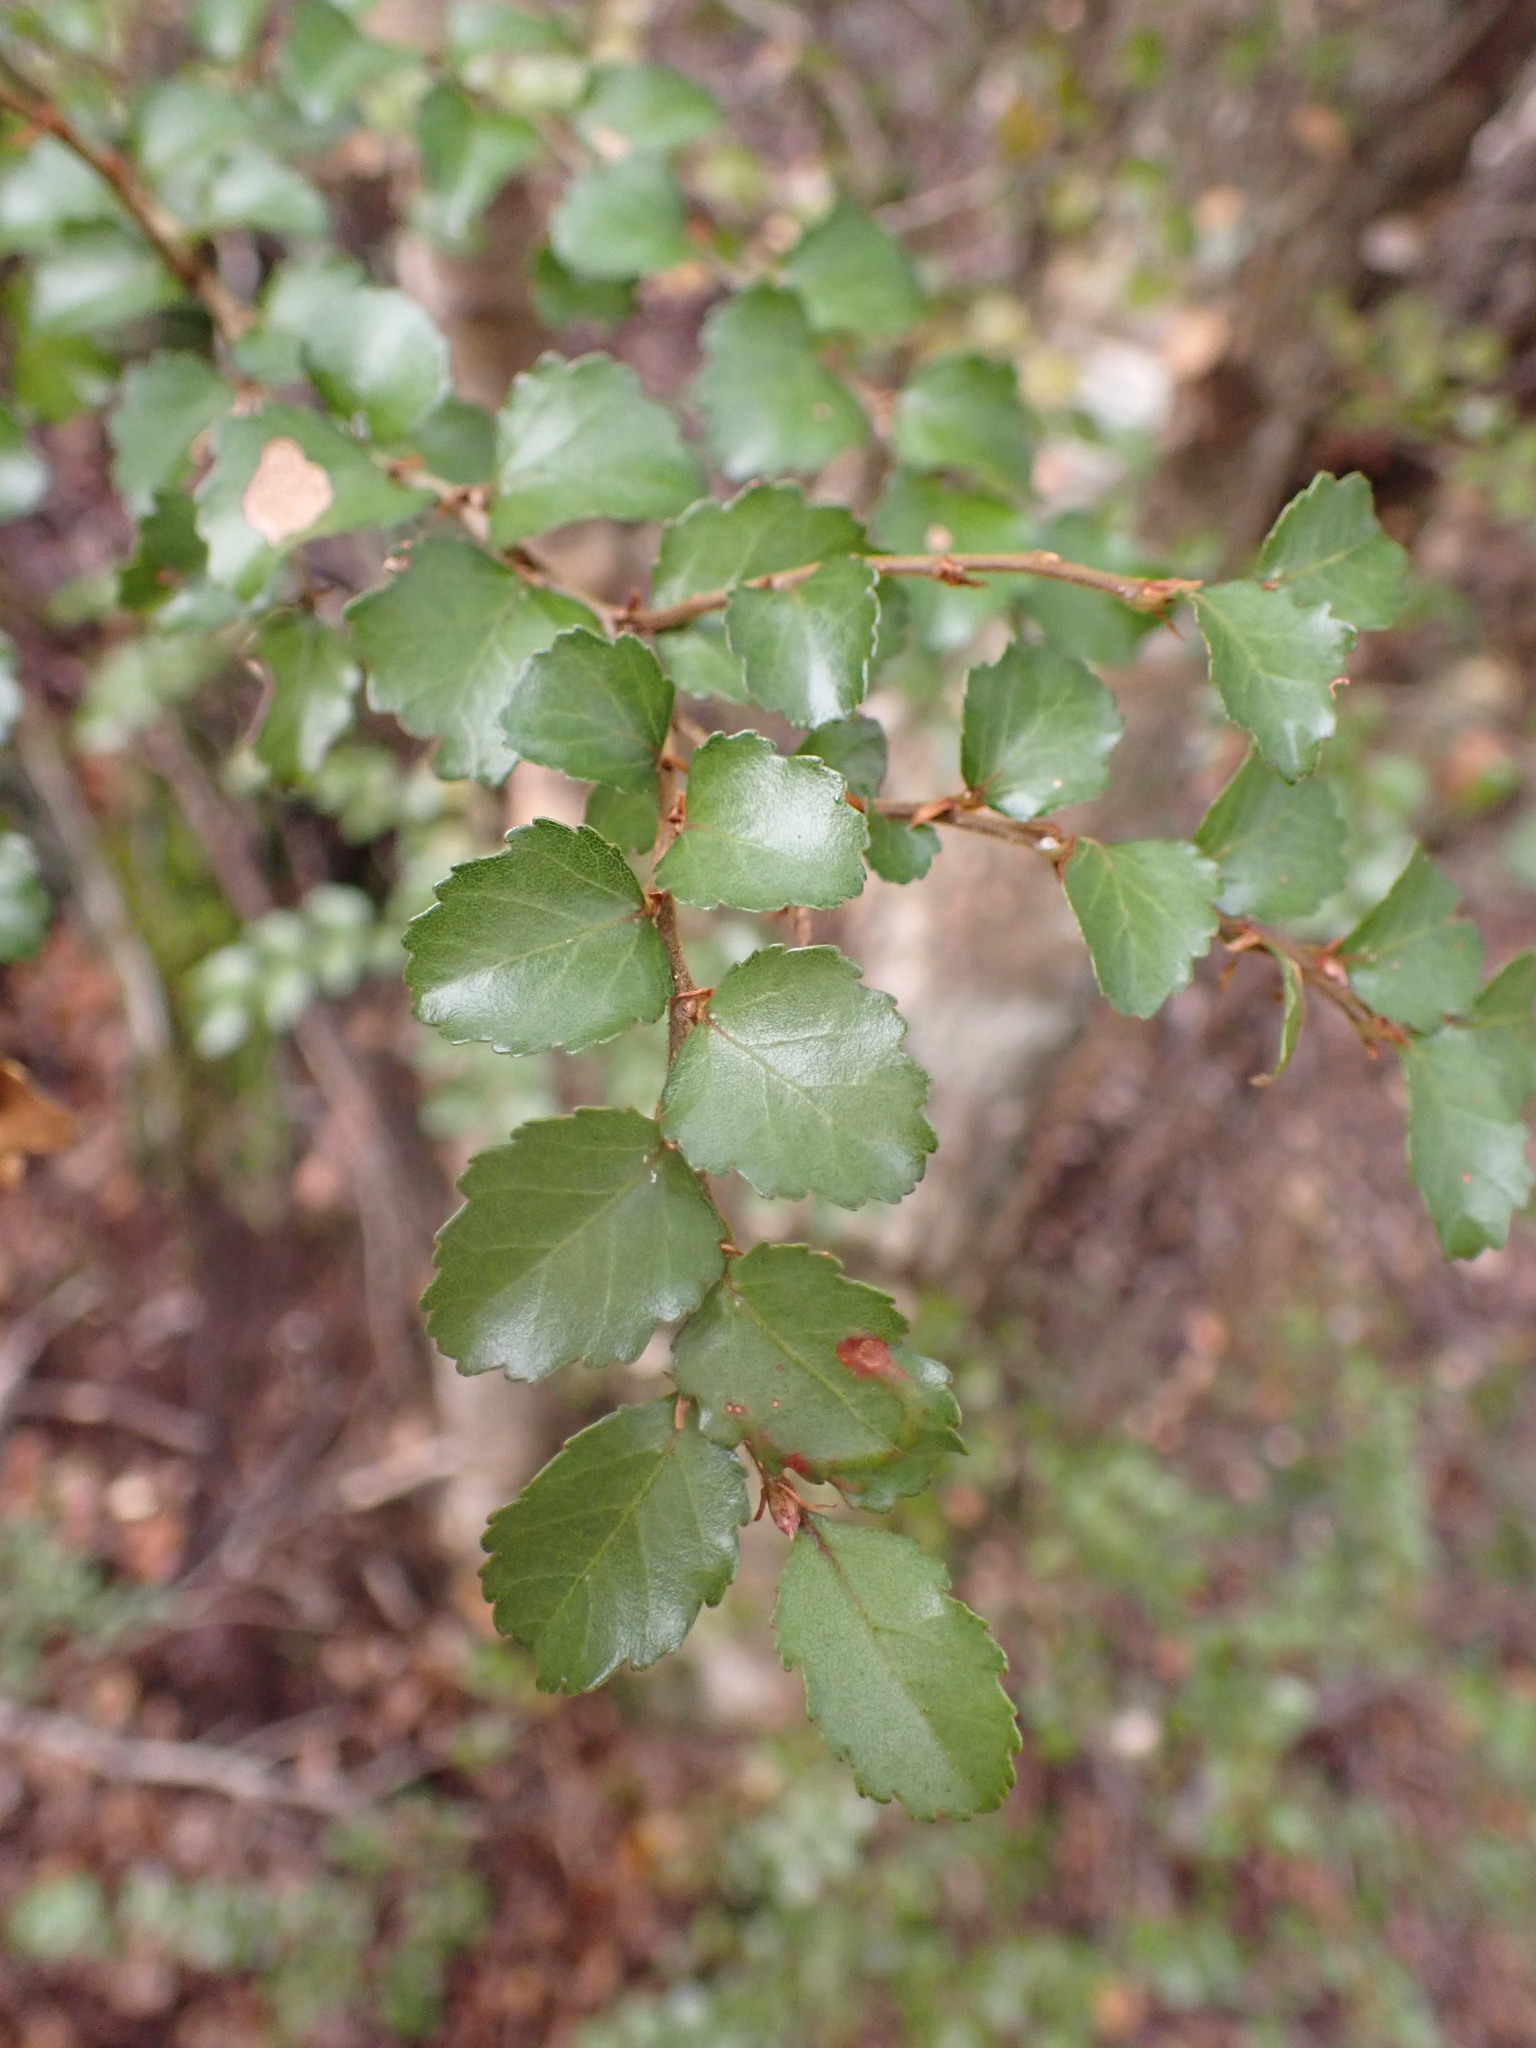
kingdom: Plantae
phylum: Tracheophyta
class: Magnoliopsida
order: Fagales
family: Nothofagaceae
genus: Nothofagus
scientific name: Nothofagus menziesii
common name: Silver beech
